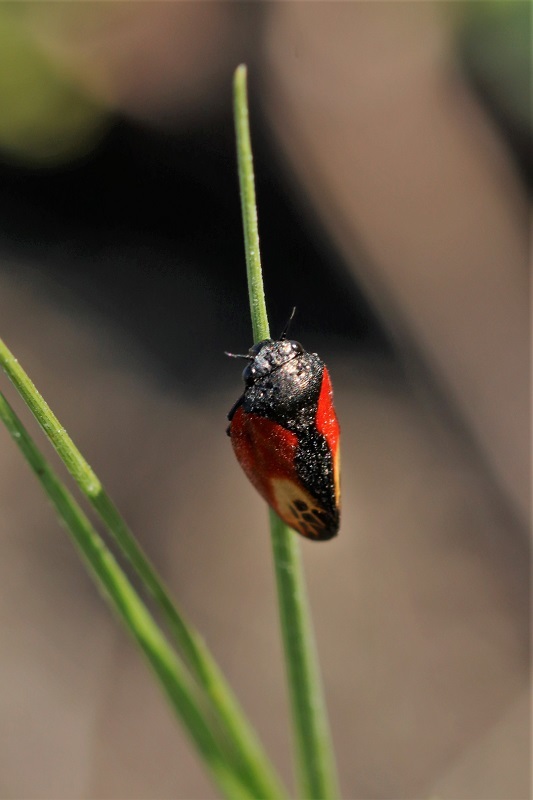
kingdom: Animalia
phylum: Arthropoda
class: Insecta
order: Hemiptera
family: Cercopidae
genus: Rhinaulax
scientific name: Rhinaulax analis
